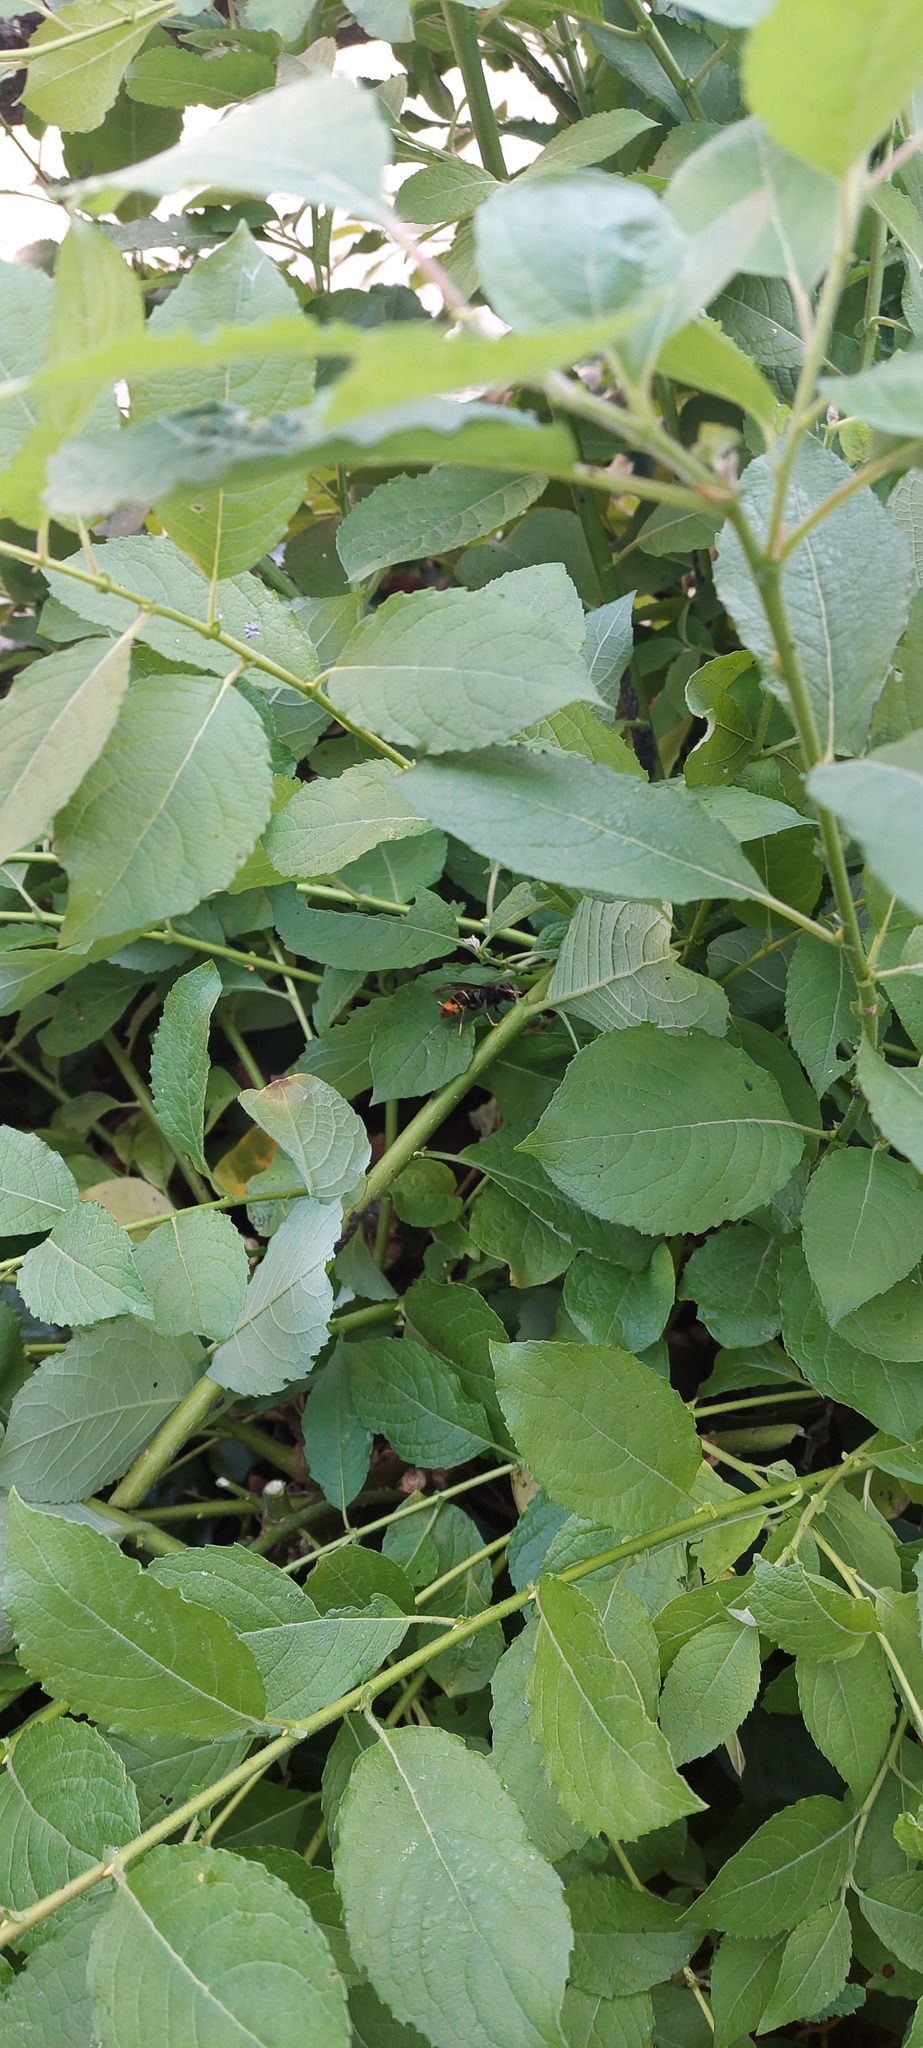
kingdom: Animalia
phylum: Arthropoda
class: Insecta
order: Hymenoptera
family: Vespidae
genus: Vespa
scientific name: Vespa velutina
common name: Asian hornet
